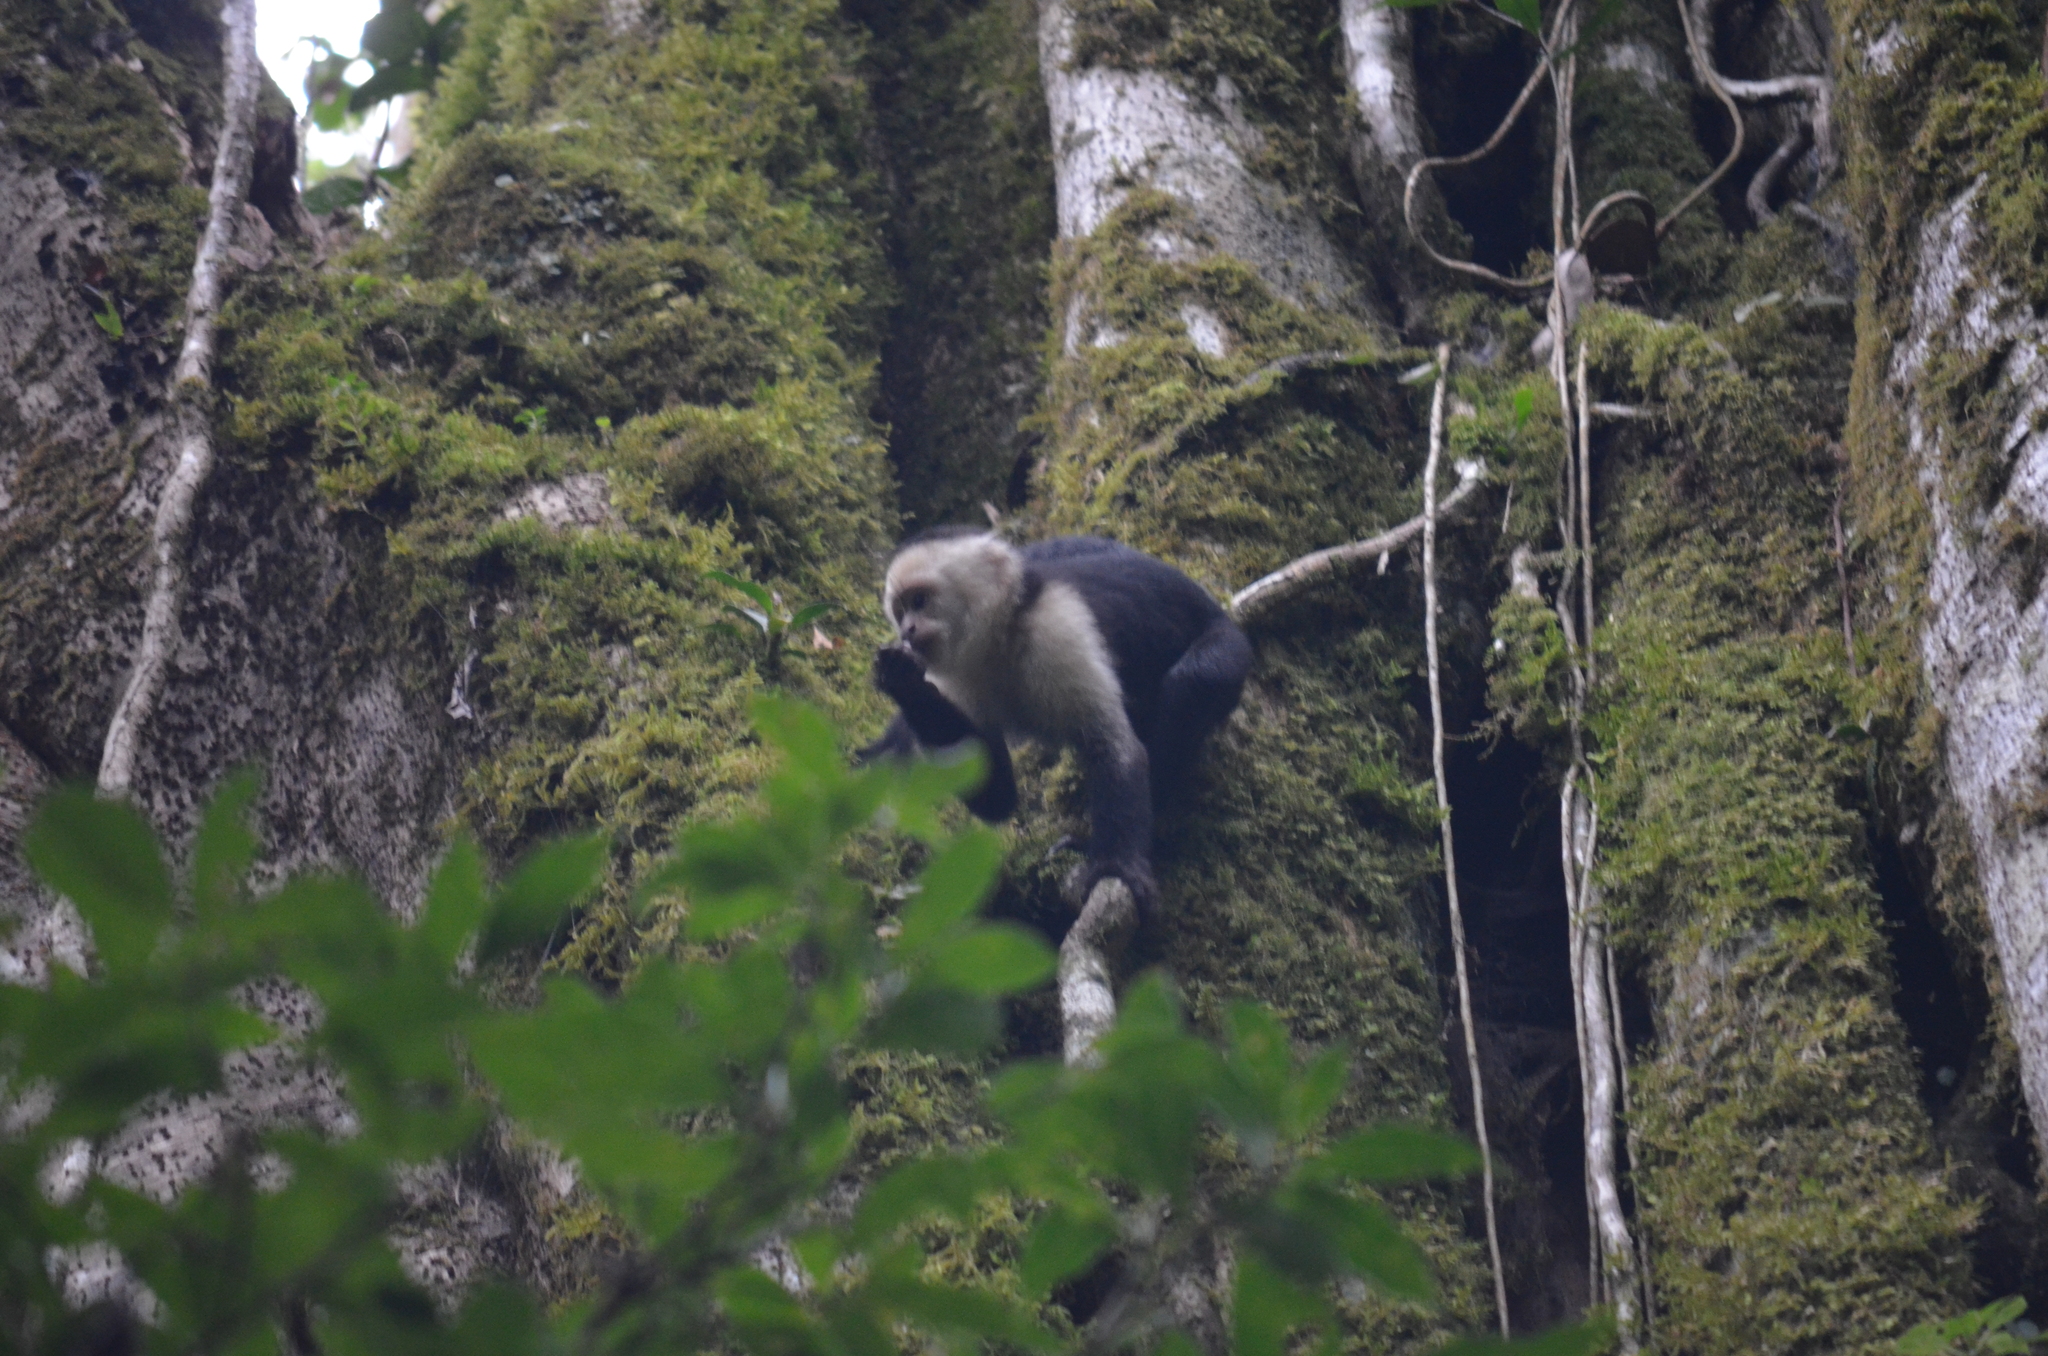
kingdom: Animalia
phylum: Chordata
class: Mammalia
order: Primates
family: Cebidae
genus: Cebus
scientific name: Cebus imitator
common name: Panamanian white-faced capuchin
